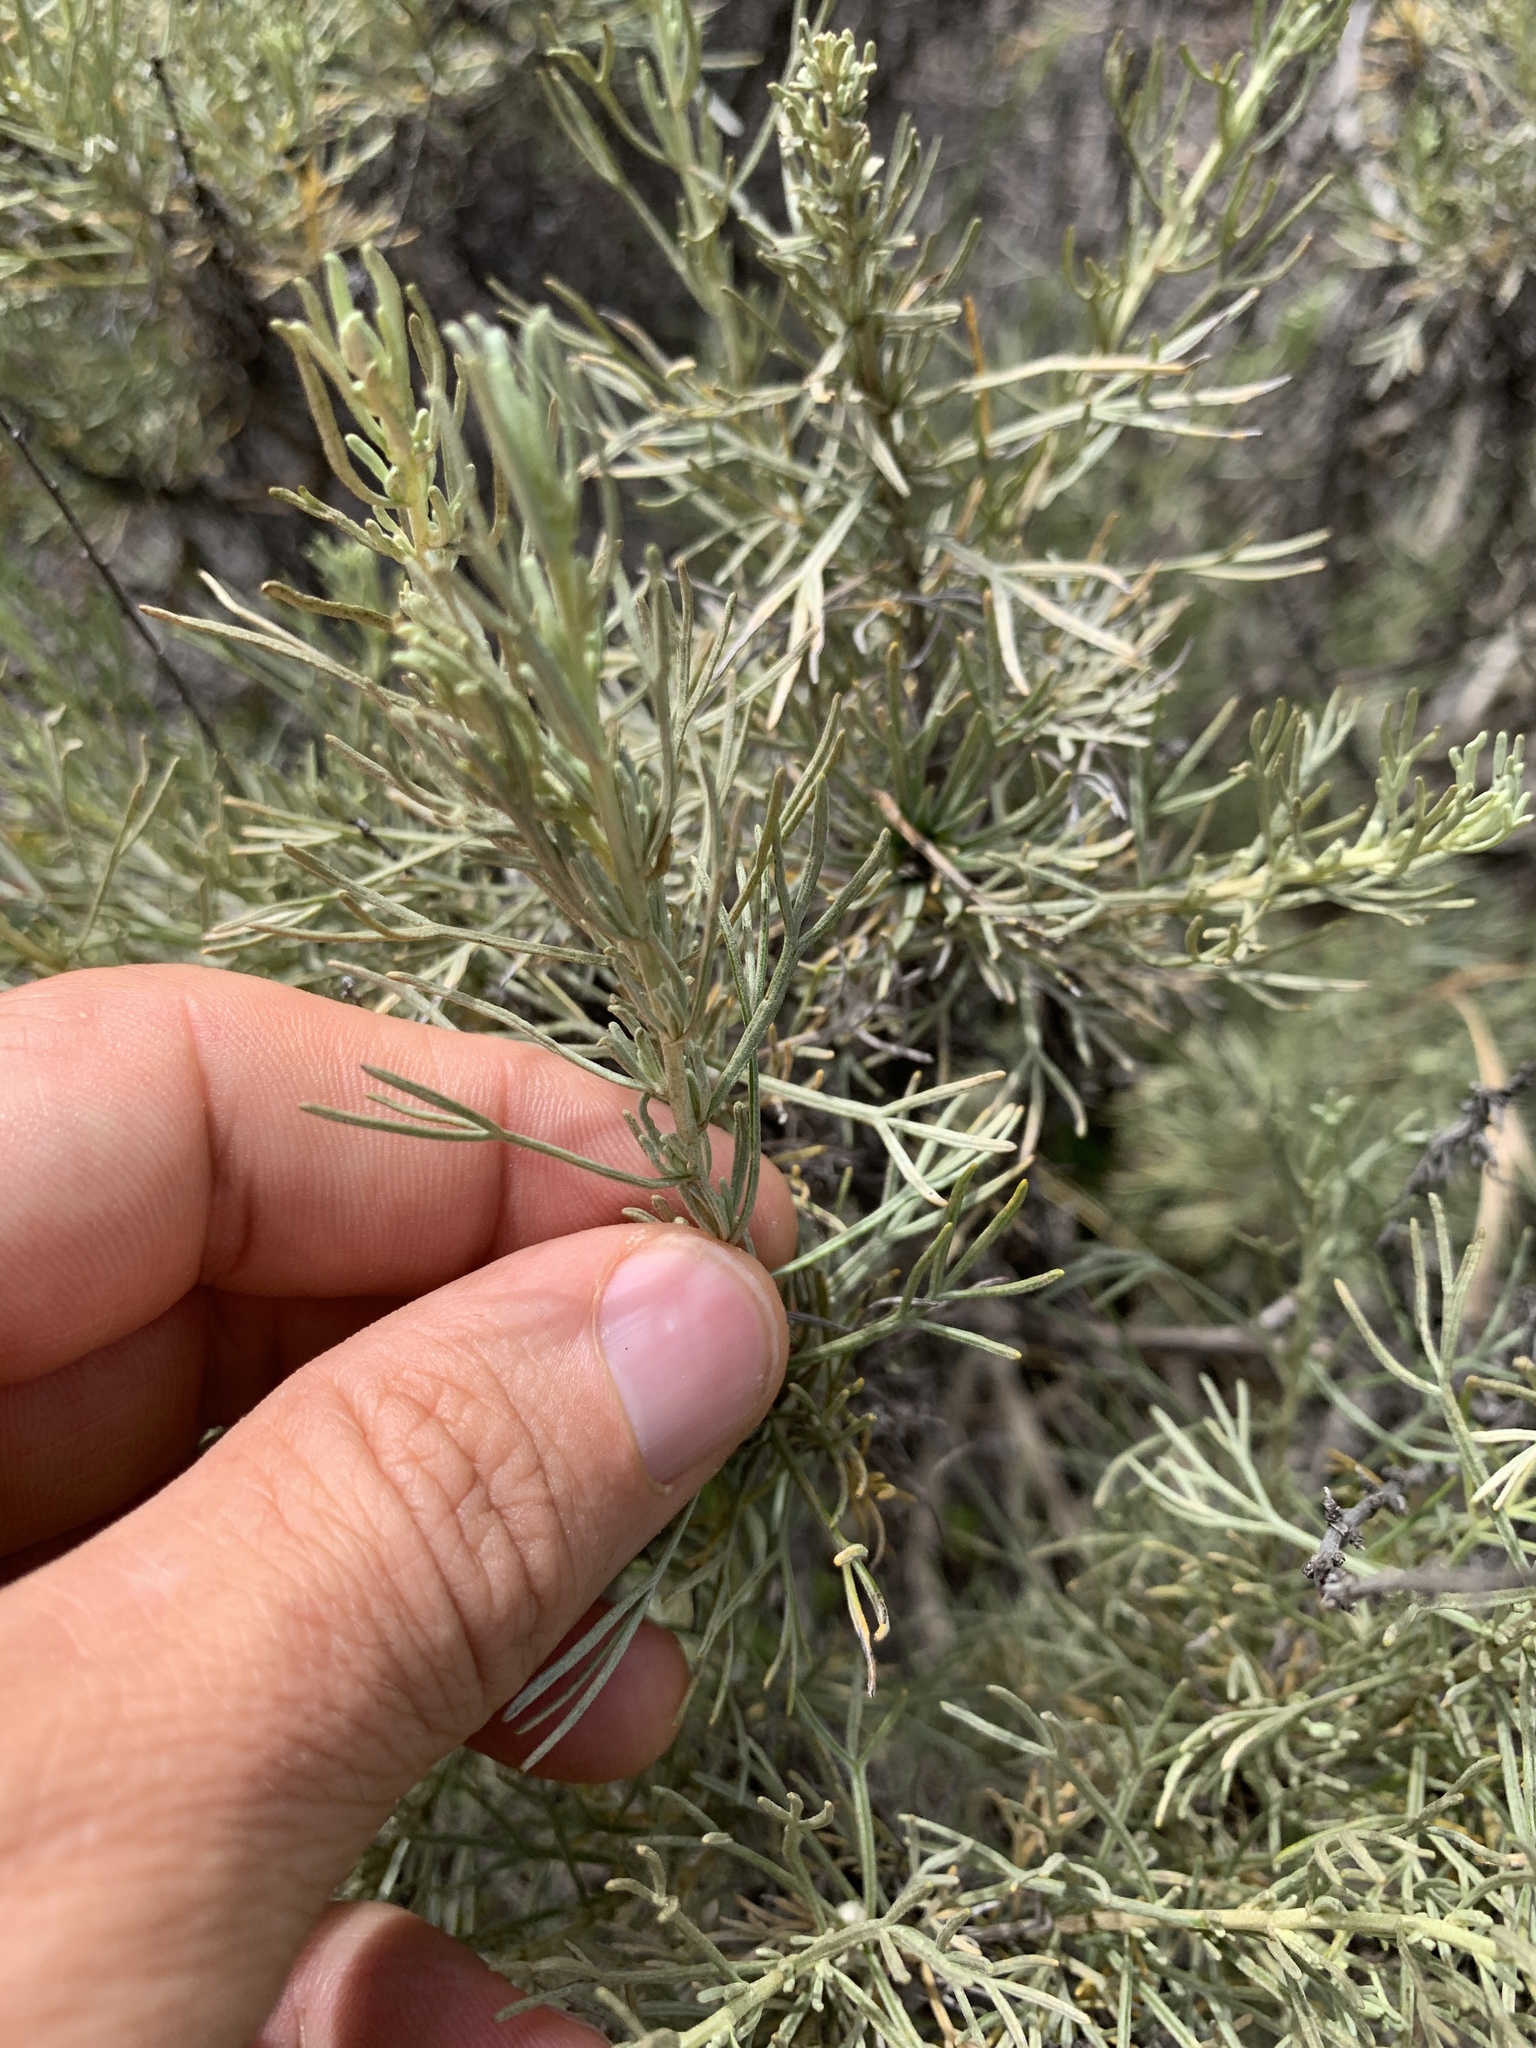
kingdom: Plantae
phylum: Tracheophyta
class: Magnoliopsida
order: Asterales
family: Asteraceae
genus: Artemisia
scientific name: Artemisia californica
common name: California sagebrush
